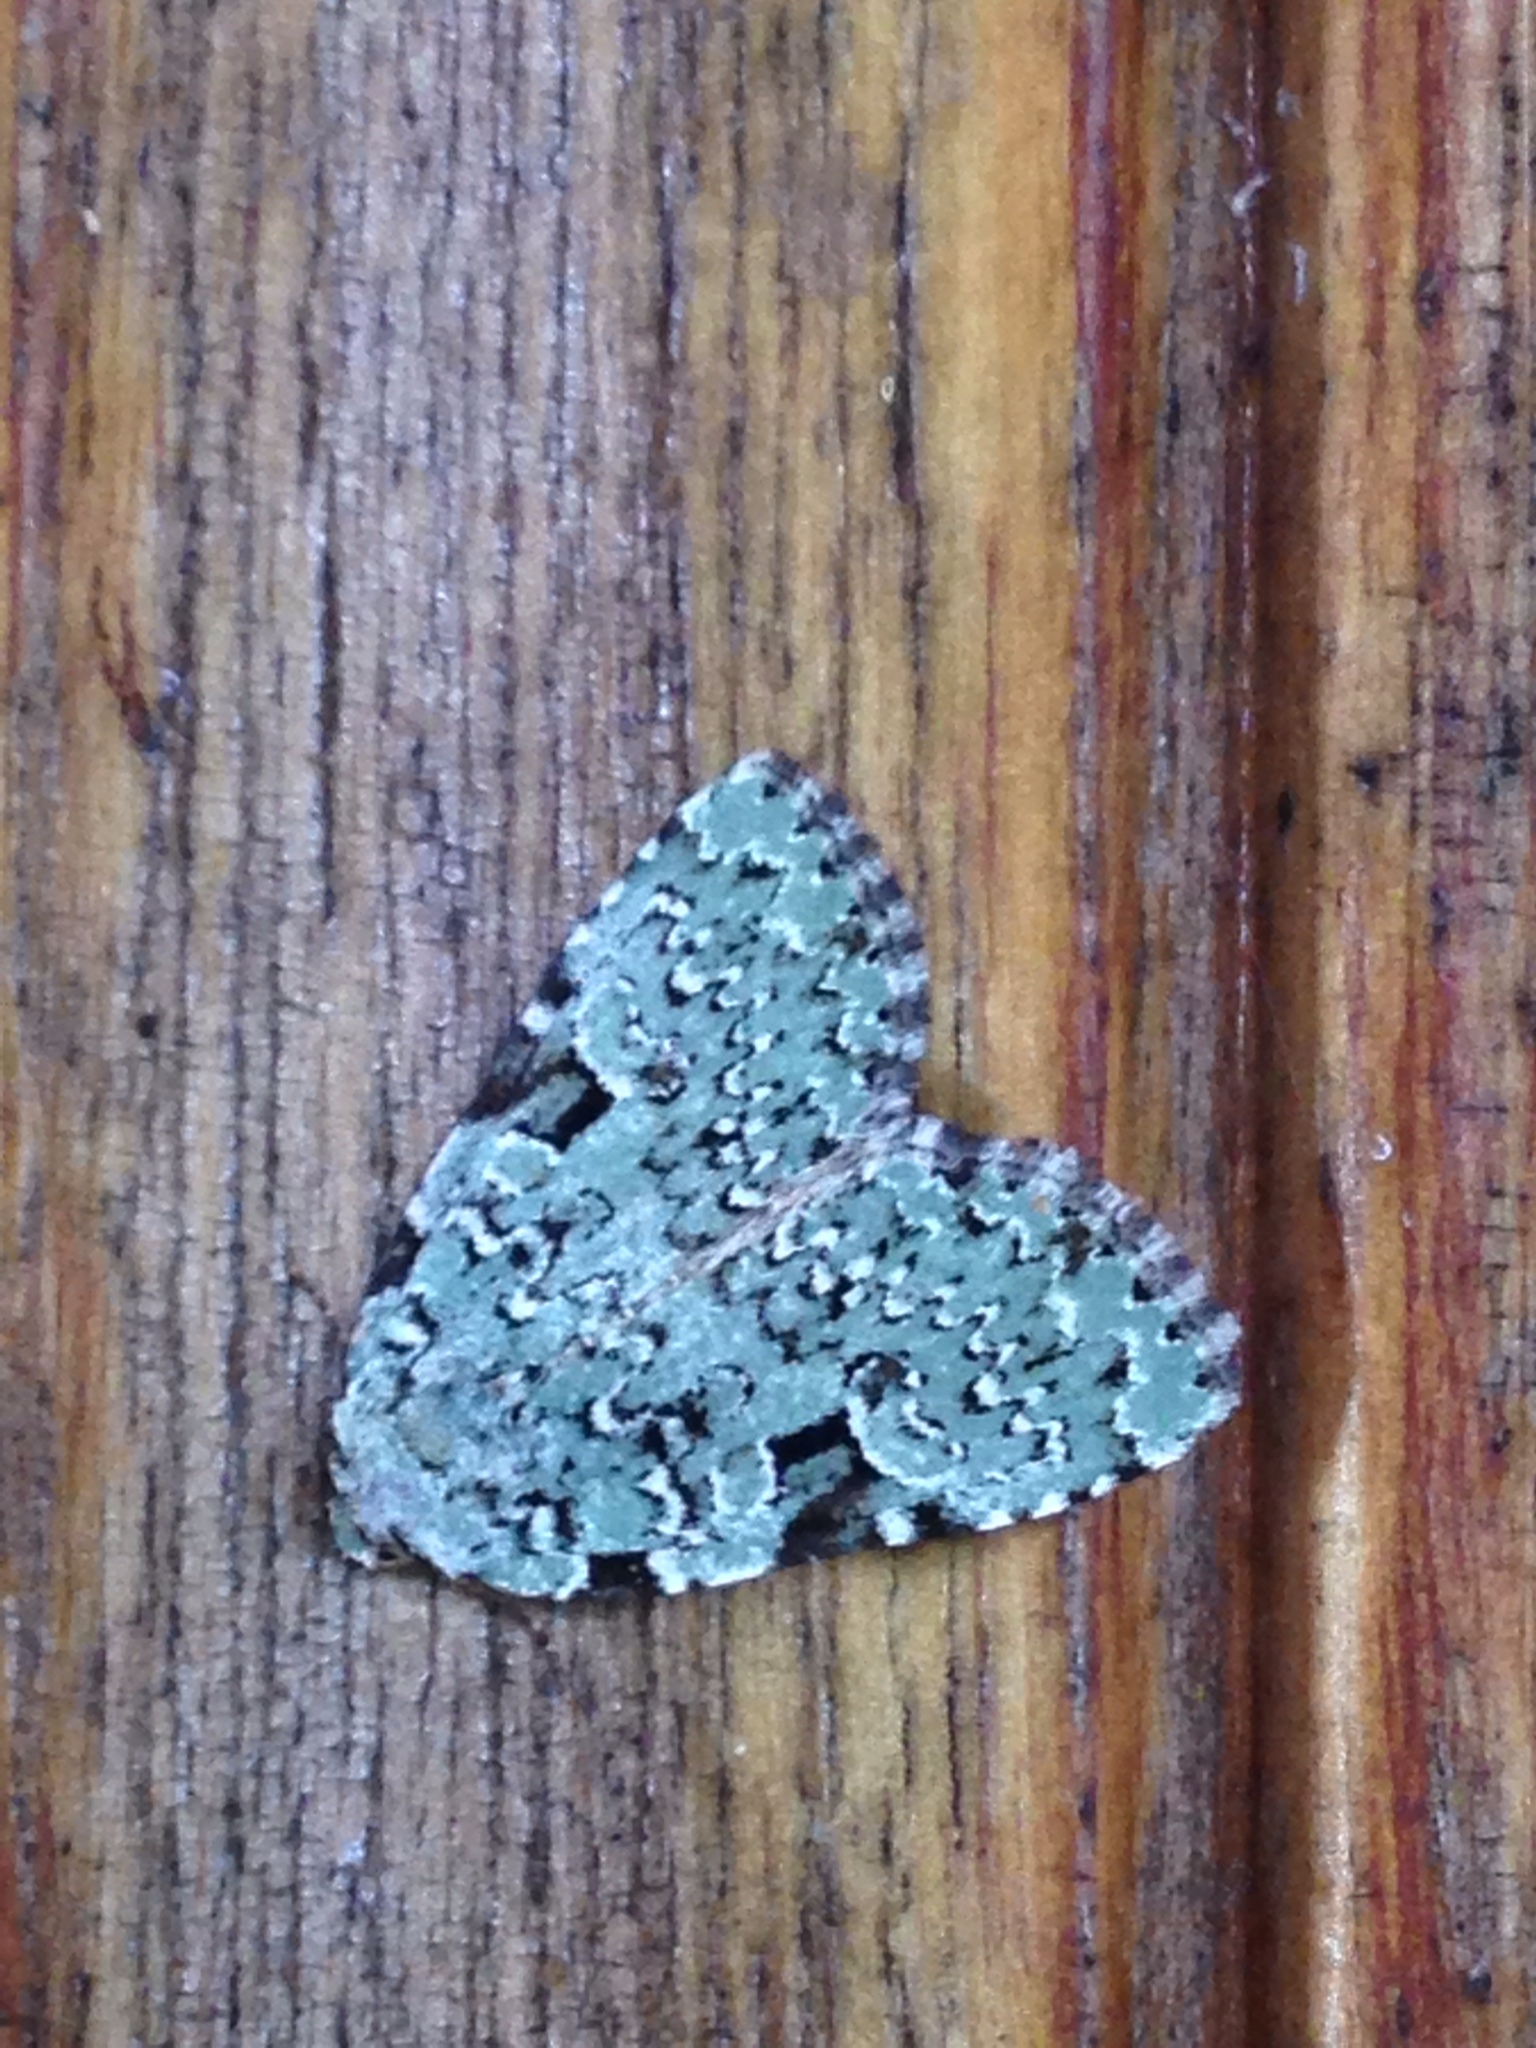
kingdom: Animalia
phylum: Arthropoda
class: Insecta
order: Lepidoptera
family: Noctuidae
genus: Leuconycta
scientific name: Leuconycta diphteroides
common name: Green leuconycta moth
